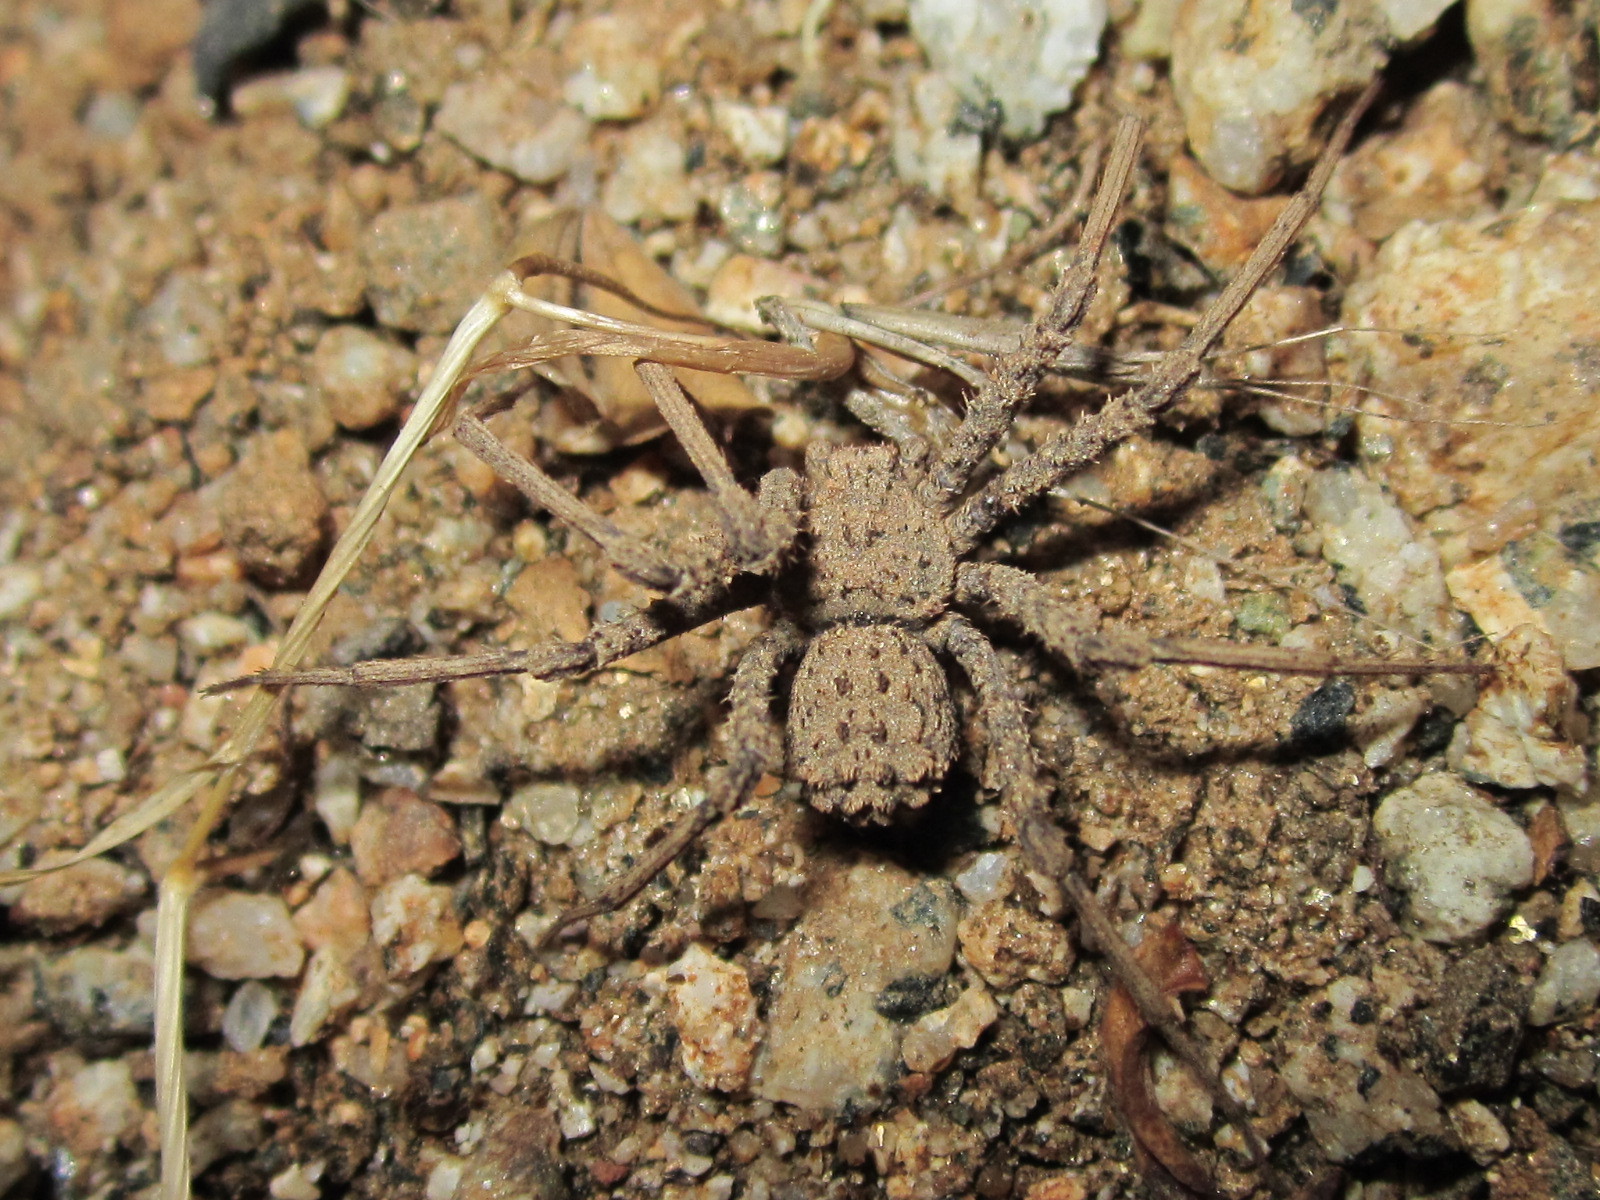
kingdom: Animalia
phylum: Arthropoda
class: Arachnida
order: Araneae
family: Sicariidae
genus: Sicarius
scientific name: Sicarius fumosus
